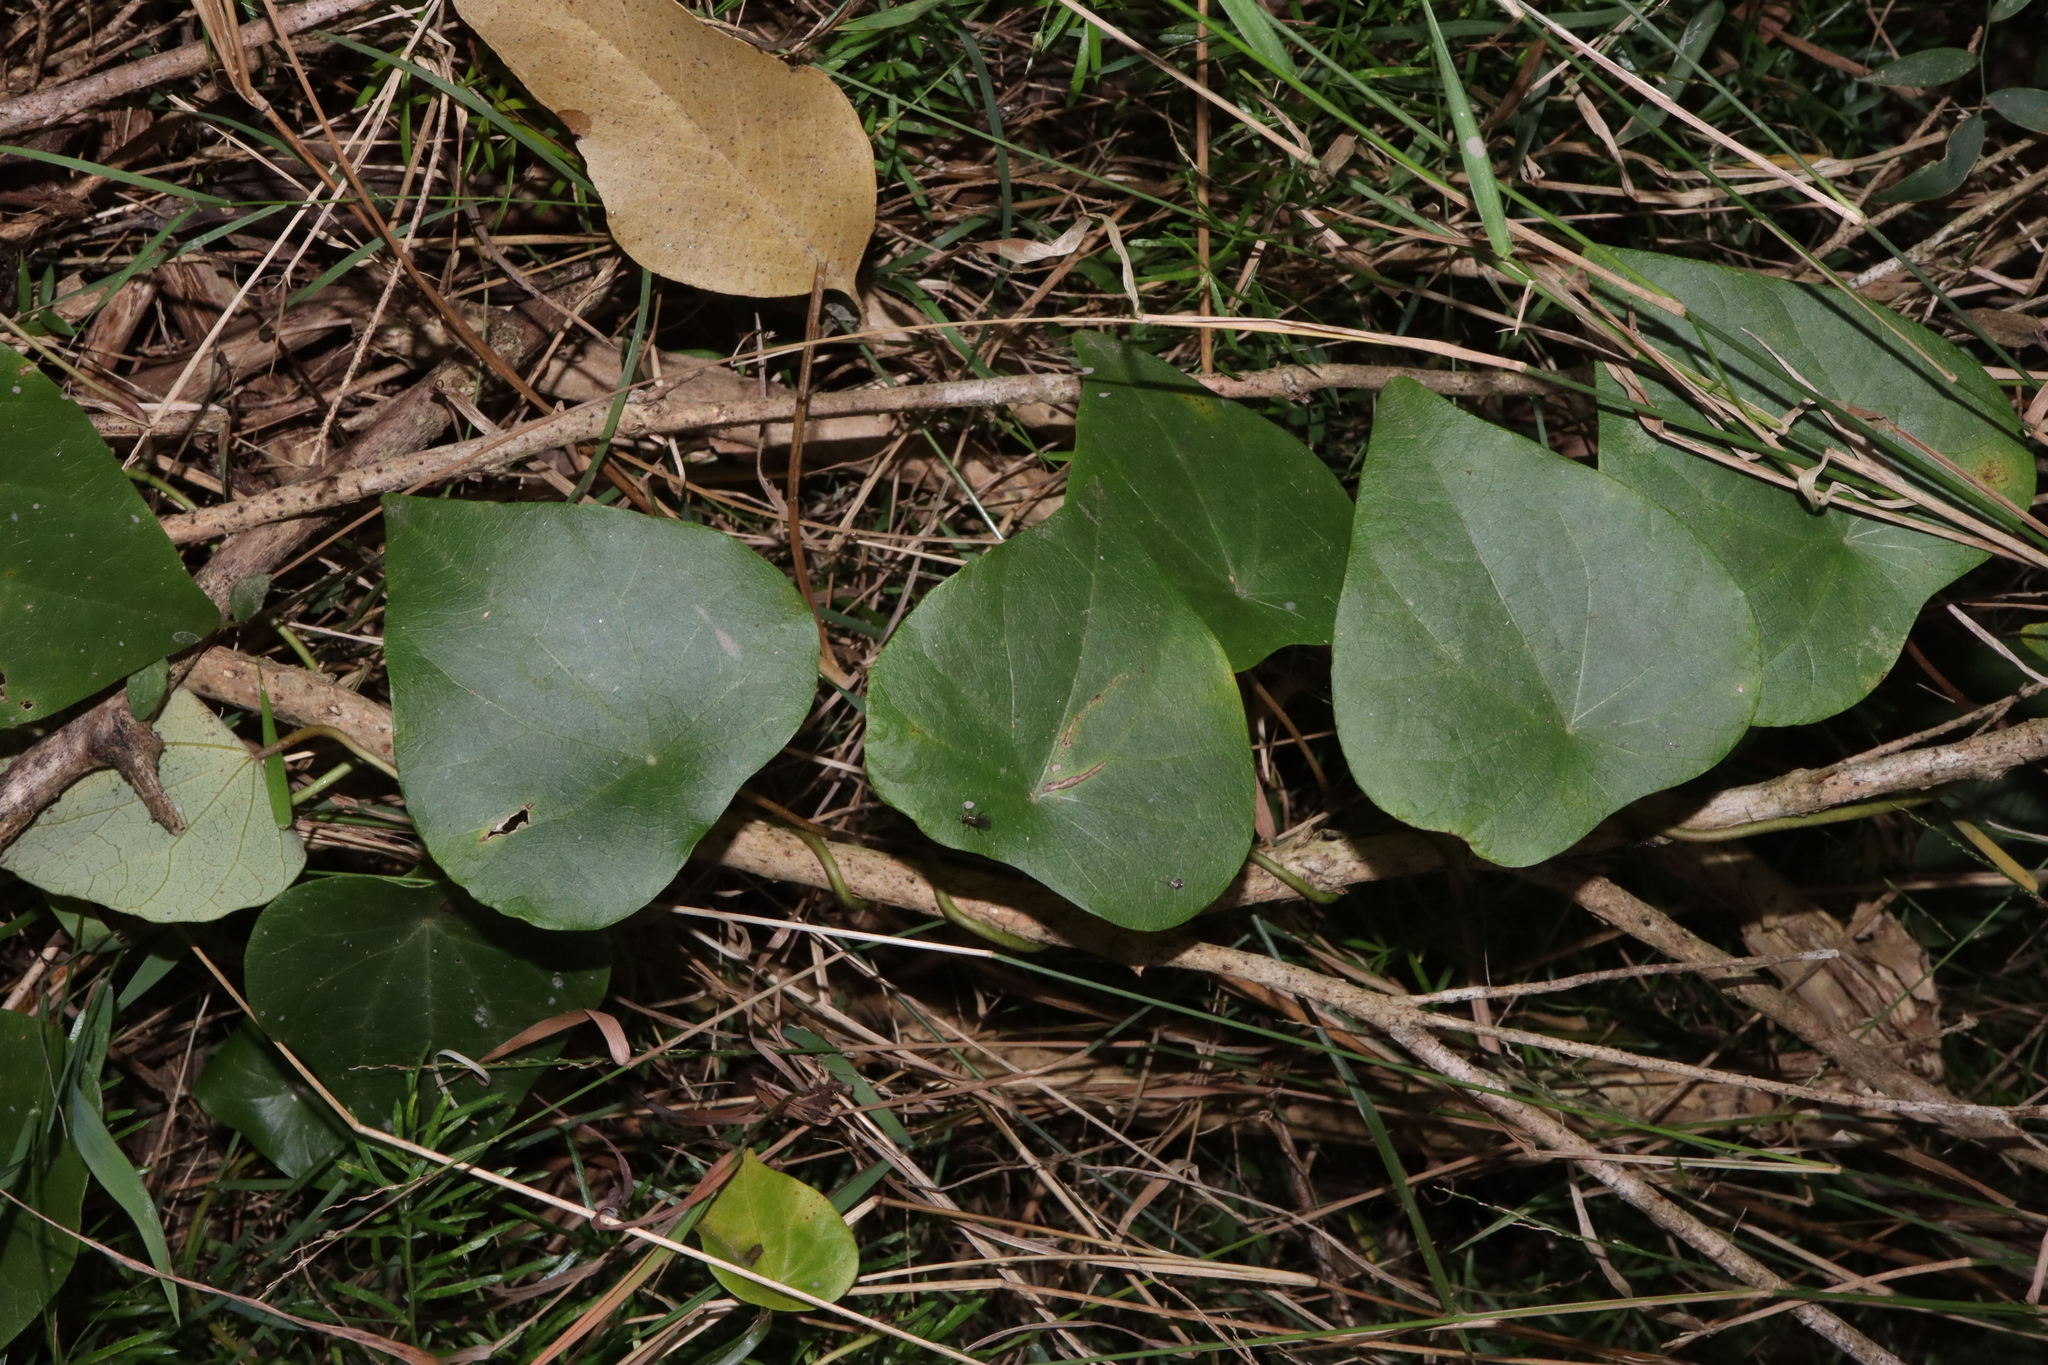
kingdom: Plantae
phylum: Tracheophyta
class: Magnoliopsida
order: Ranunculales
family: Menispermaceae
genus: Stephania
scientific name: Stephania japonica
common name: Snake vine
